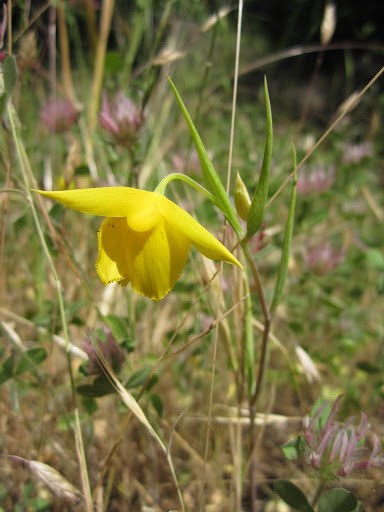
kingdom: Plantae
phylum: Tracheophyta
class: Liliopsida
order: Liliales
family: Liliaceae
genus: Calochortus
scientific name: Calochortus amabilis
